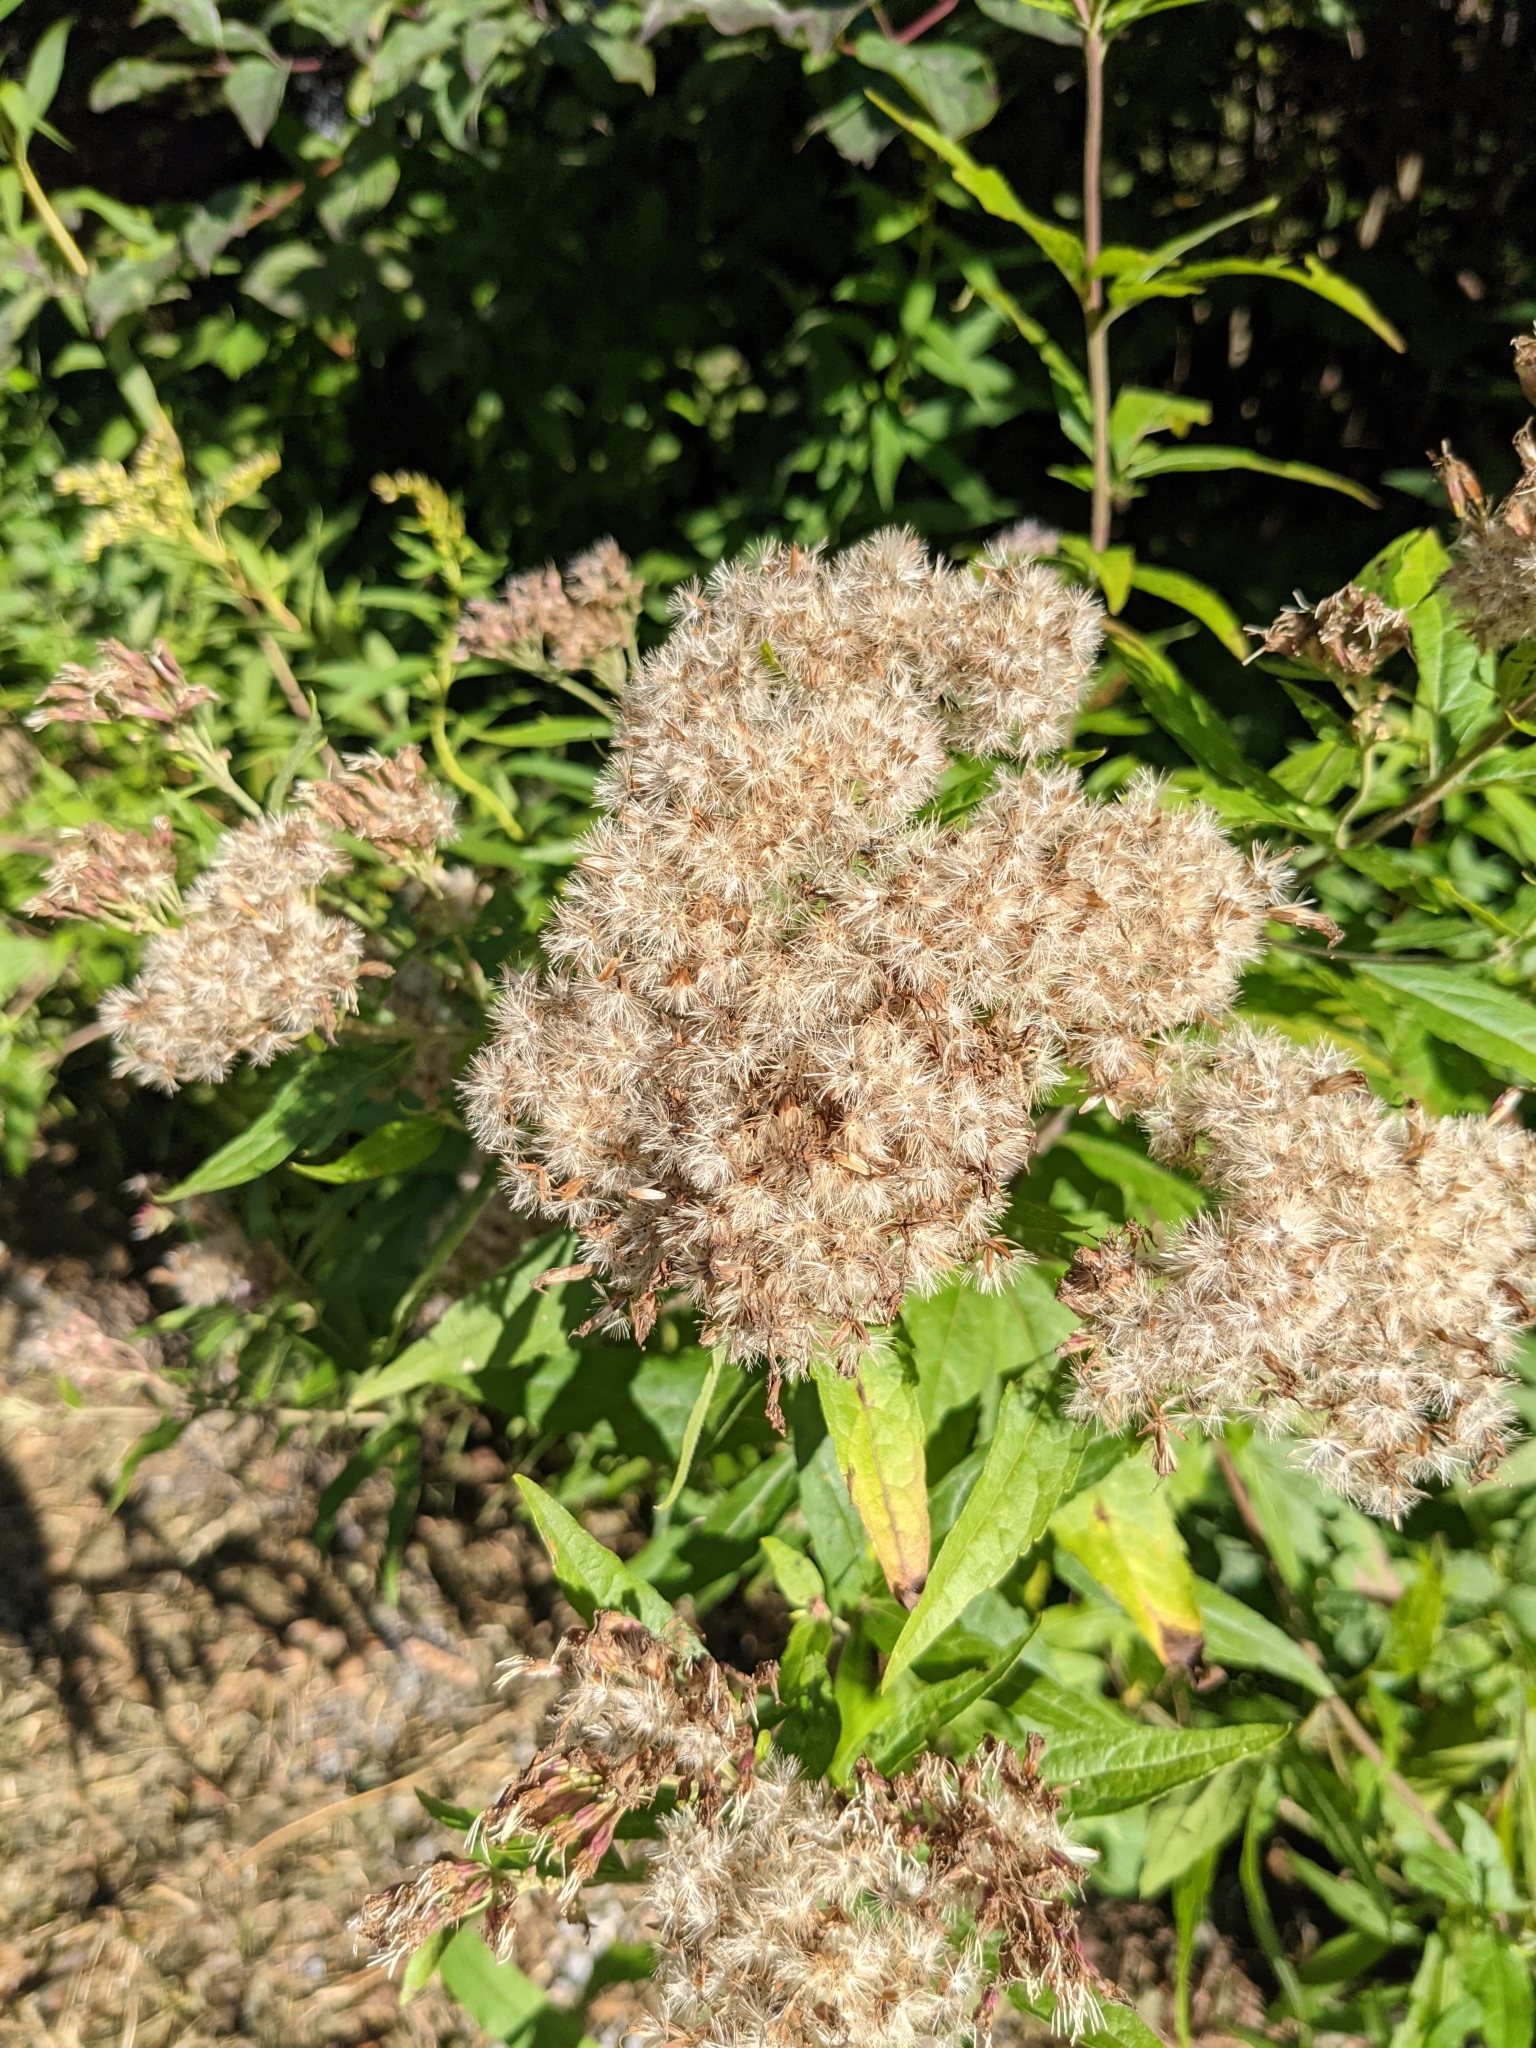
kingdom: Plantae
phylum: Tracheophyta
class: Magnoliopsida
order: Asterales
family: Asteraceae
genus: Eupatorium
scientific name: Eupatorium cannabinum
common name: Hemp-agrimony
